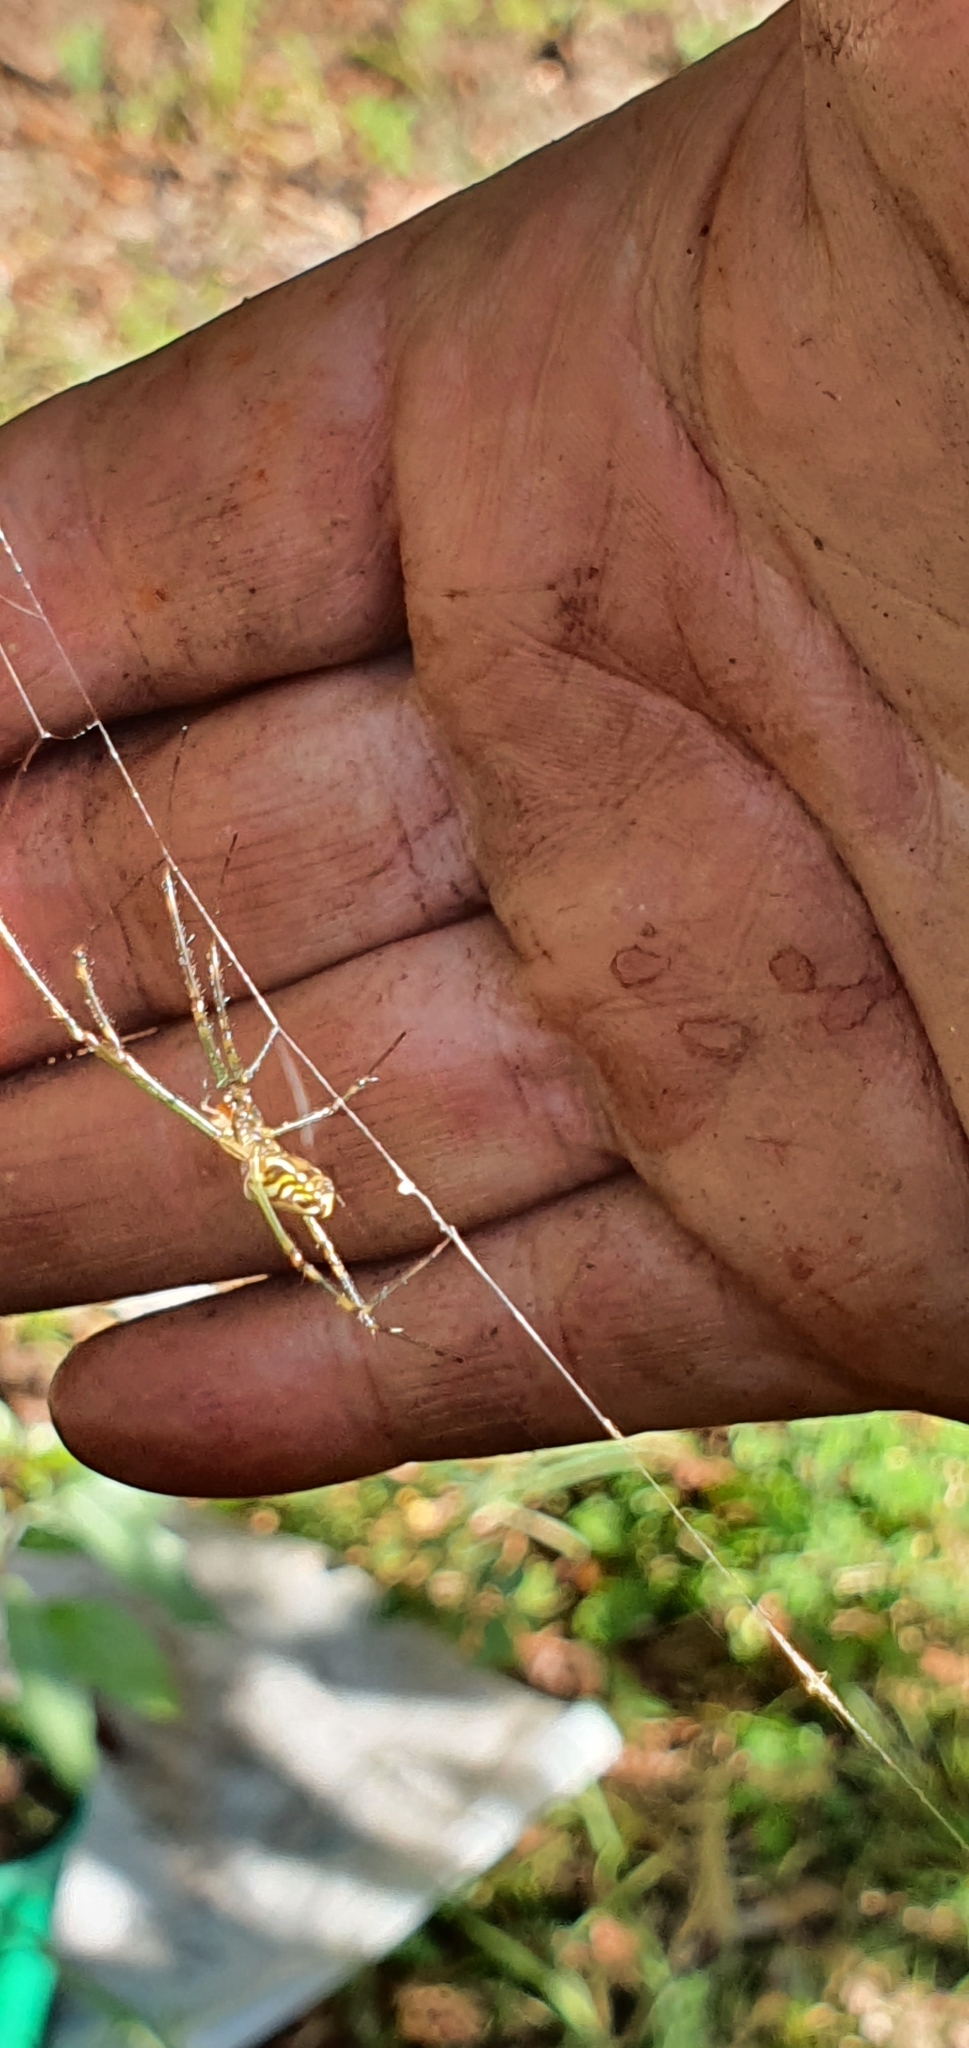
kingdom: Animalia
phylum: Arthropoda
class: Arachnida
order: Araneae
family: Tetragnathidae
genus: Leucauge
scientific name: Leucauge dromedaria
